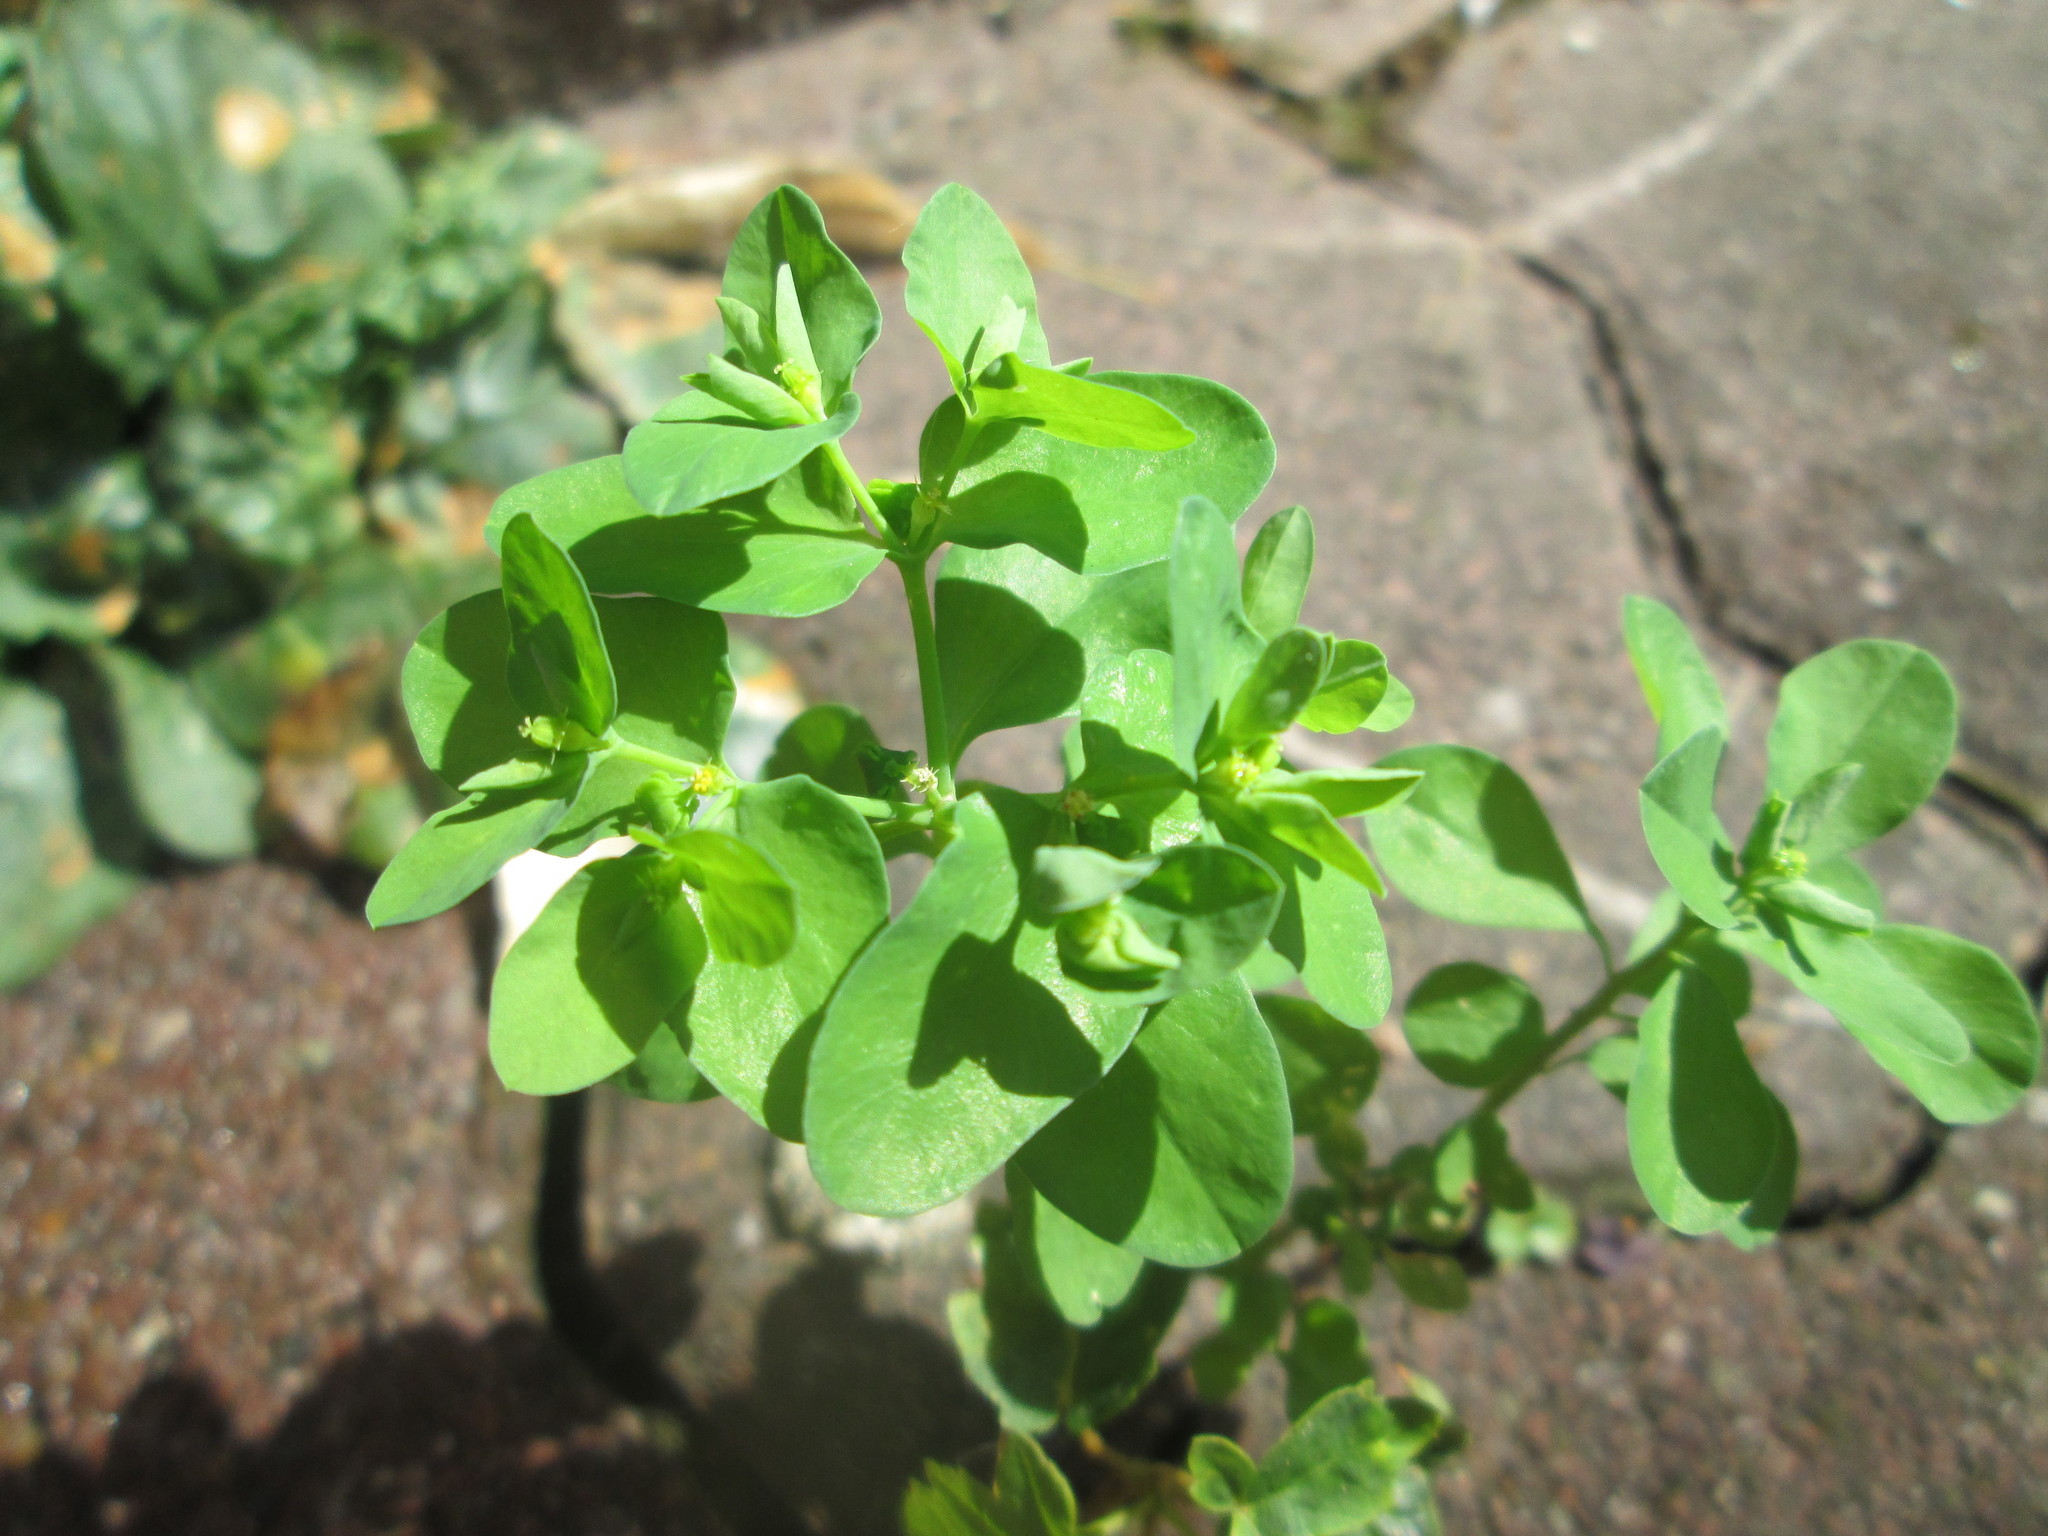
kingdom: Plantae
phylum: Tracheophyta
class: Magnoliopsida
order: Malpighiales
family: Euphorbiaceae
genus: Euphorbia
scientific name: Euphorbia peplus
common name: Petty spurge
